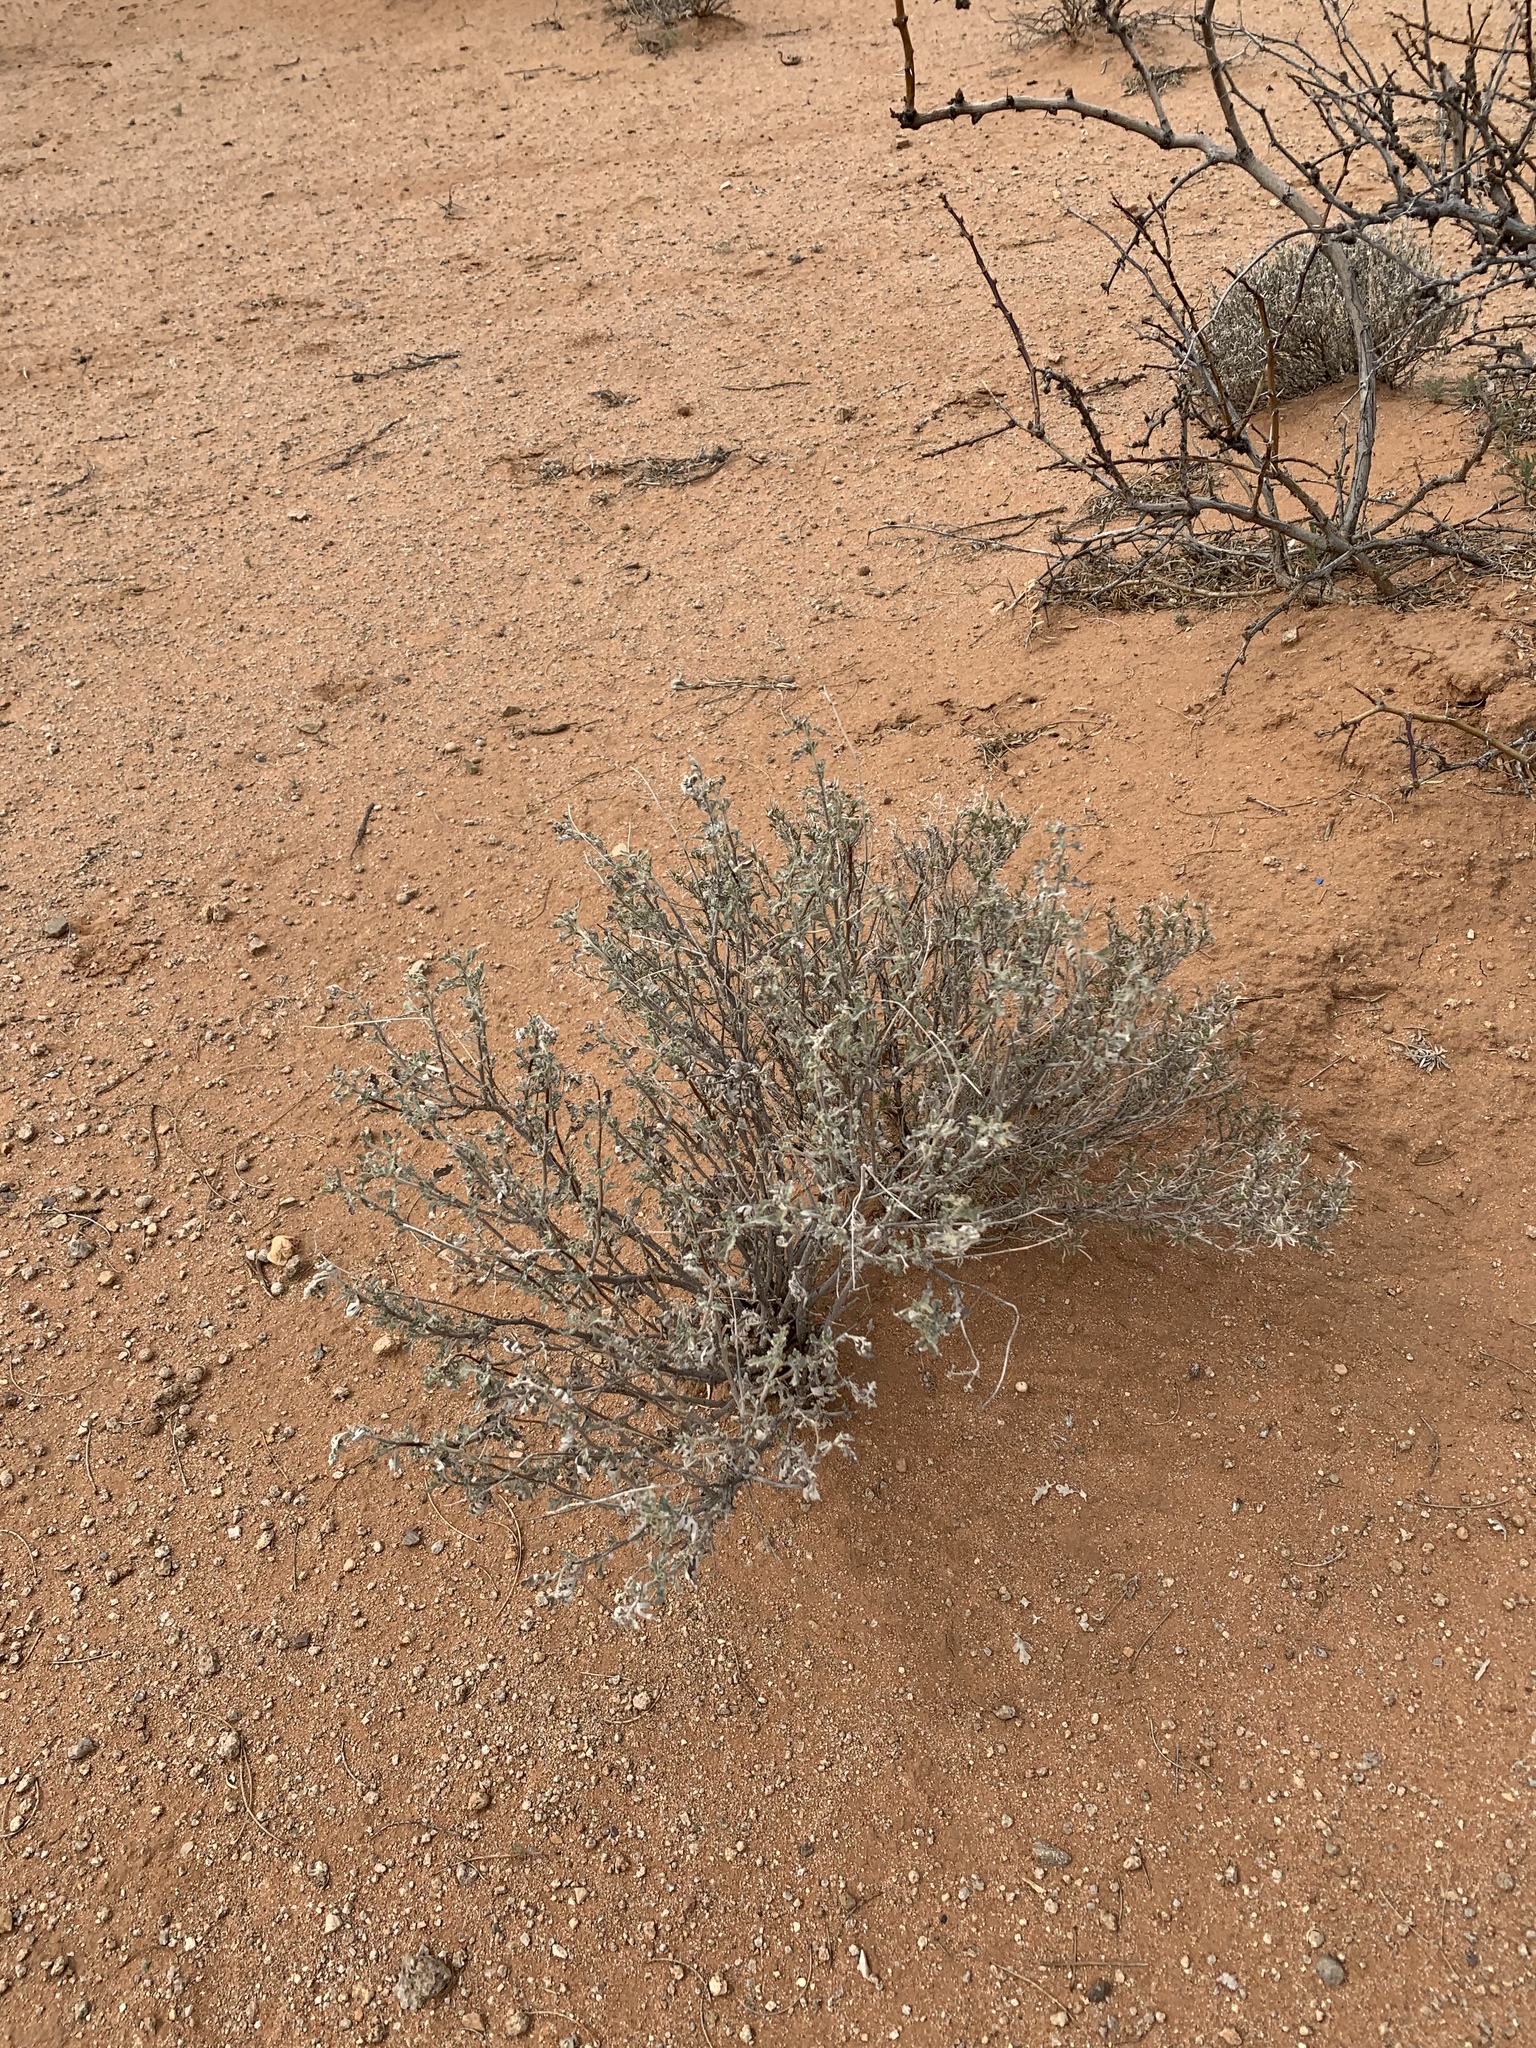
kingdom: Plantae
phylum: Tracheophyta
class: Magnoliopsida
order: Asterales
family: Asteraceae
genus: Parthenium
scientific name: Parthenium incanum
